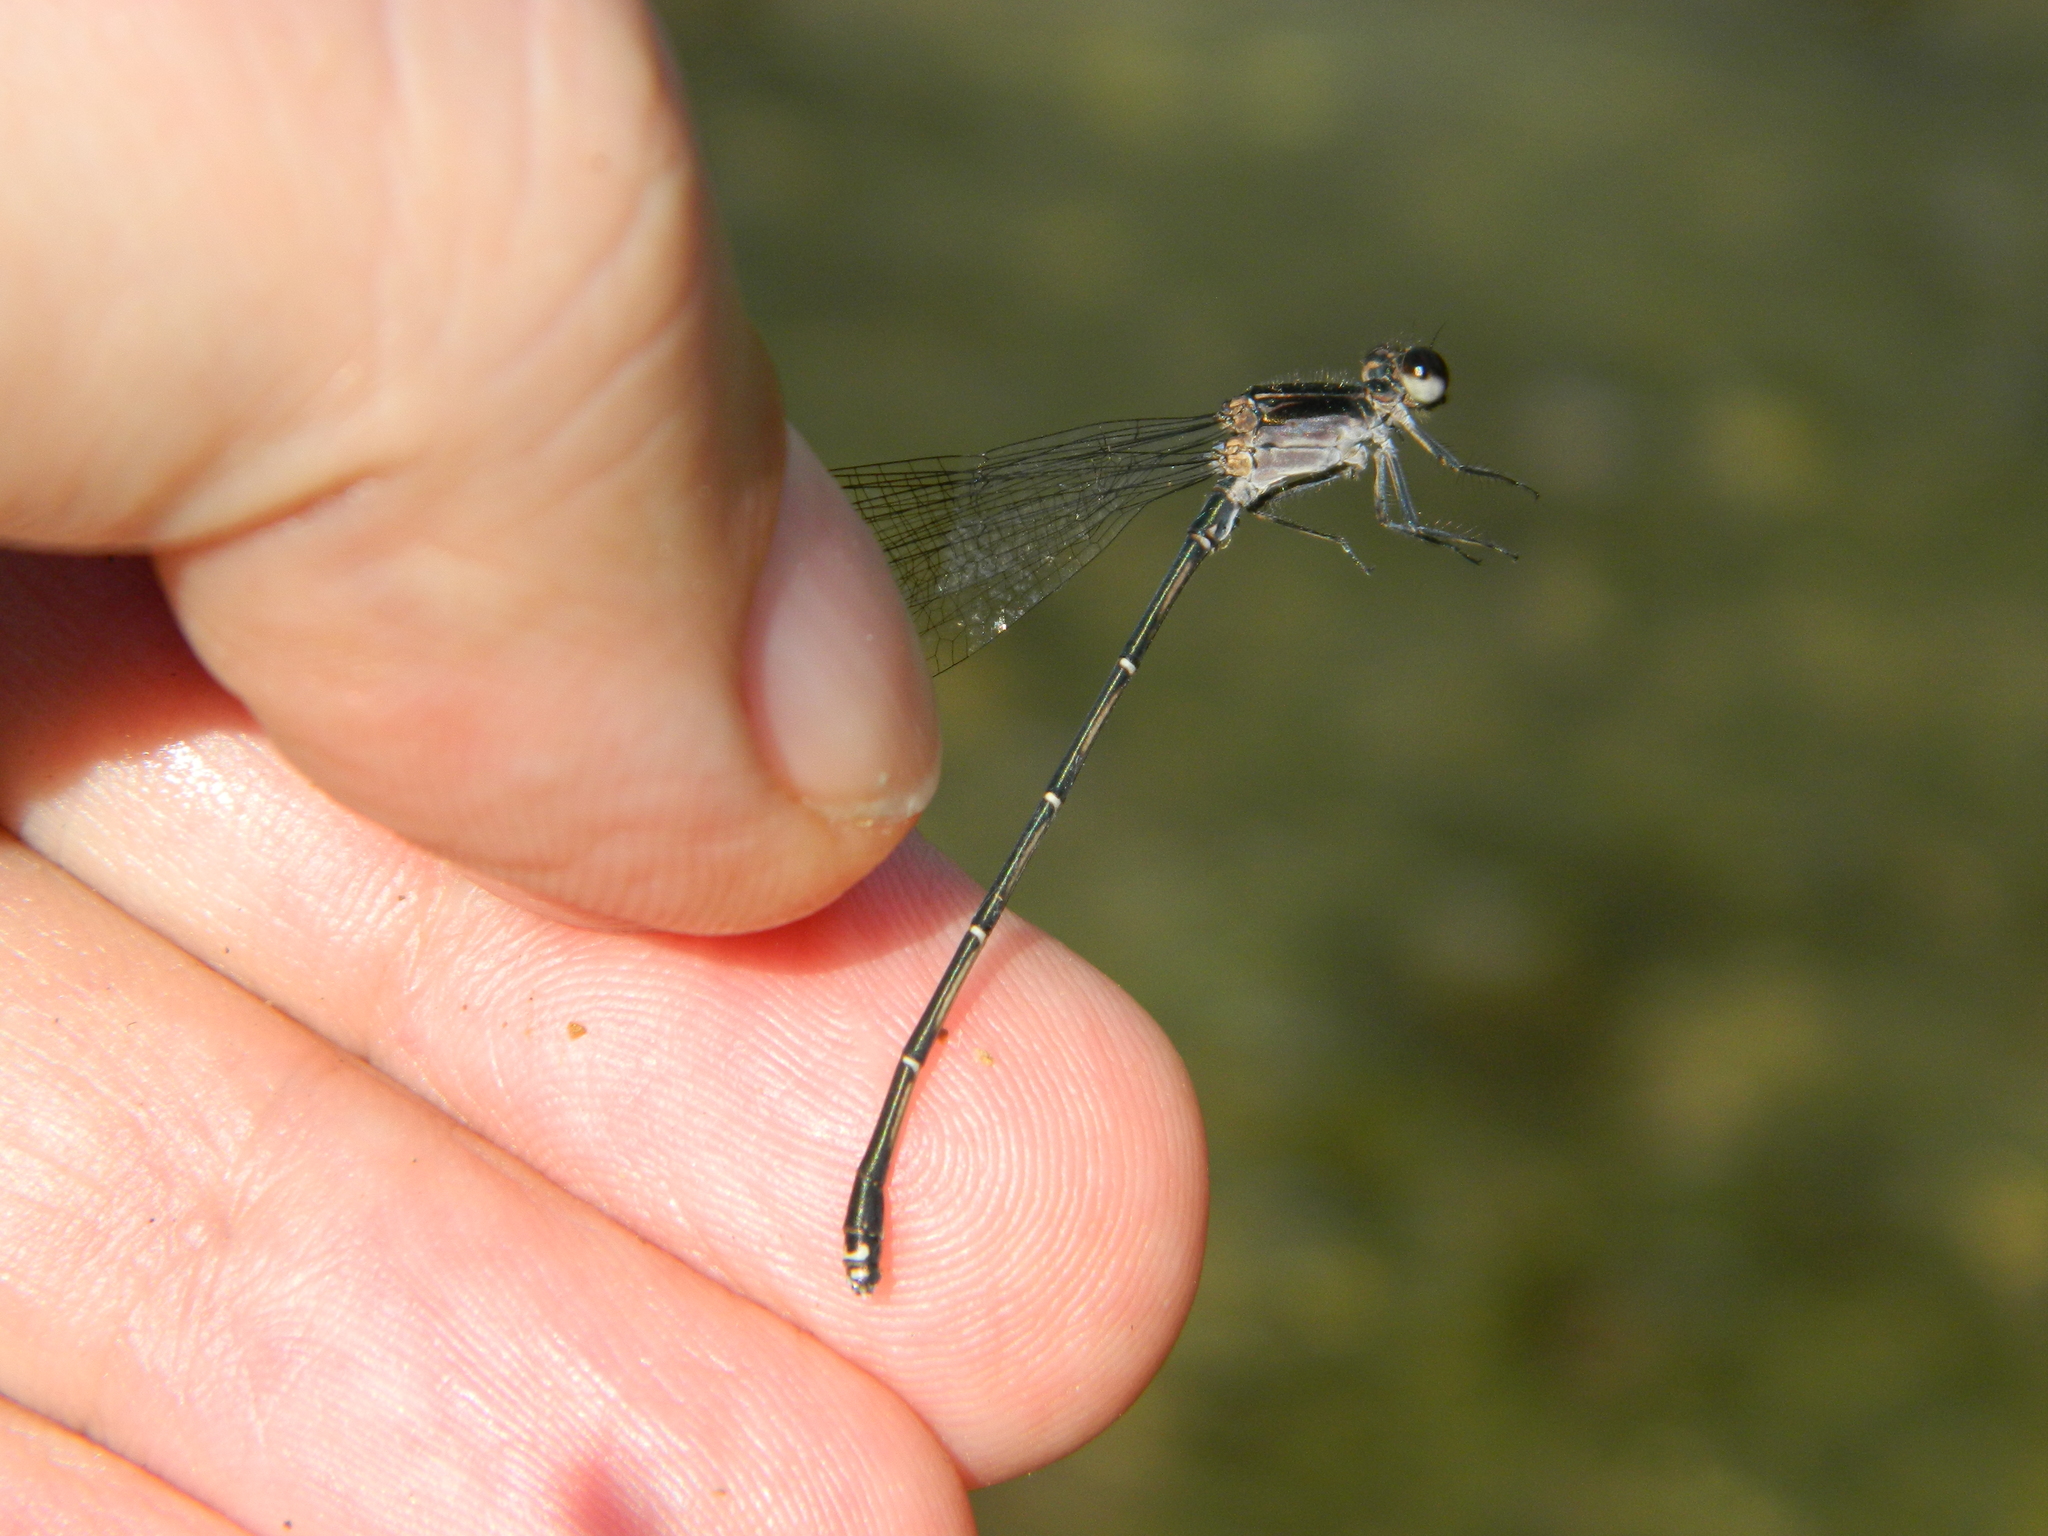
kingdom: Animalia
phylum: Arthropoda
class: Insecta
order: Odonata
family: Coenagrionidae
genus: Argia
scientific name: Argia tezpi
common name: Tezpi dancer
